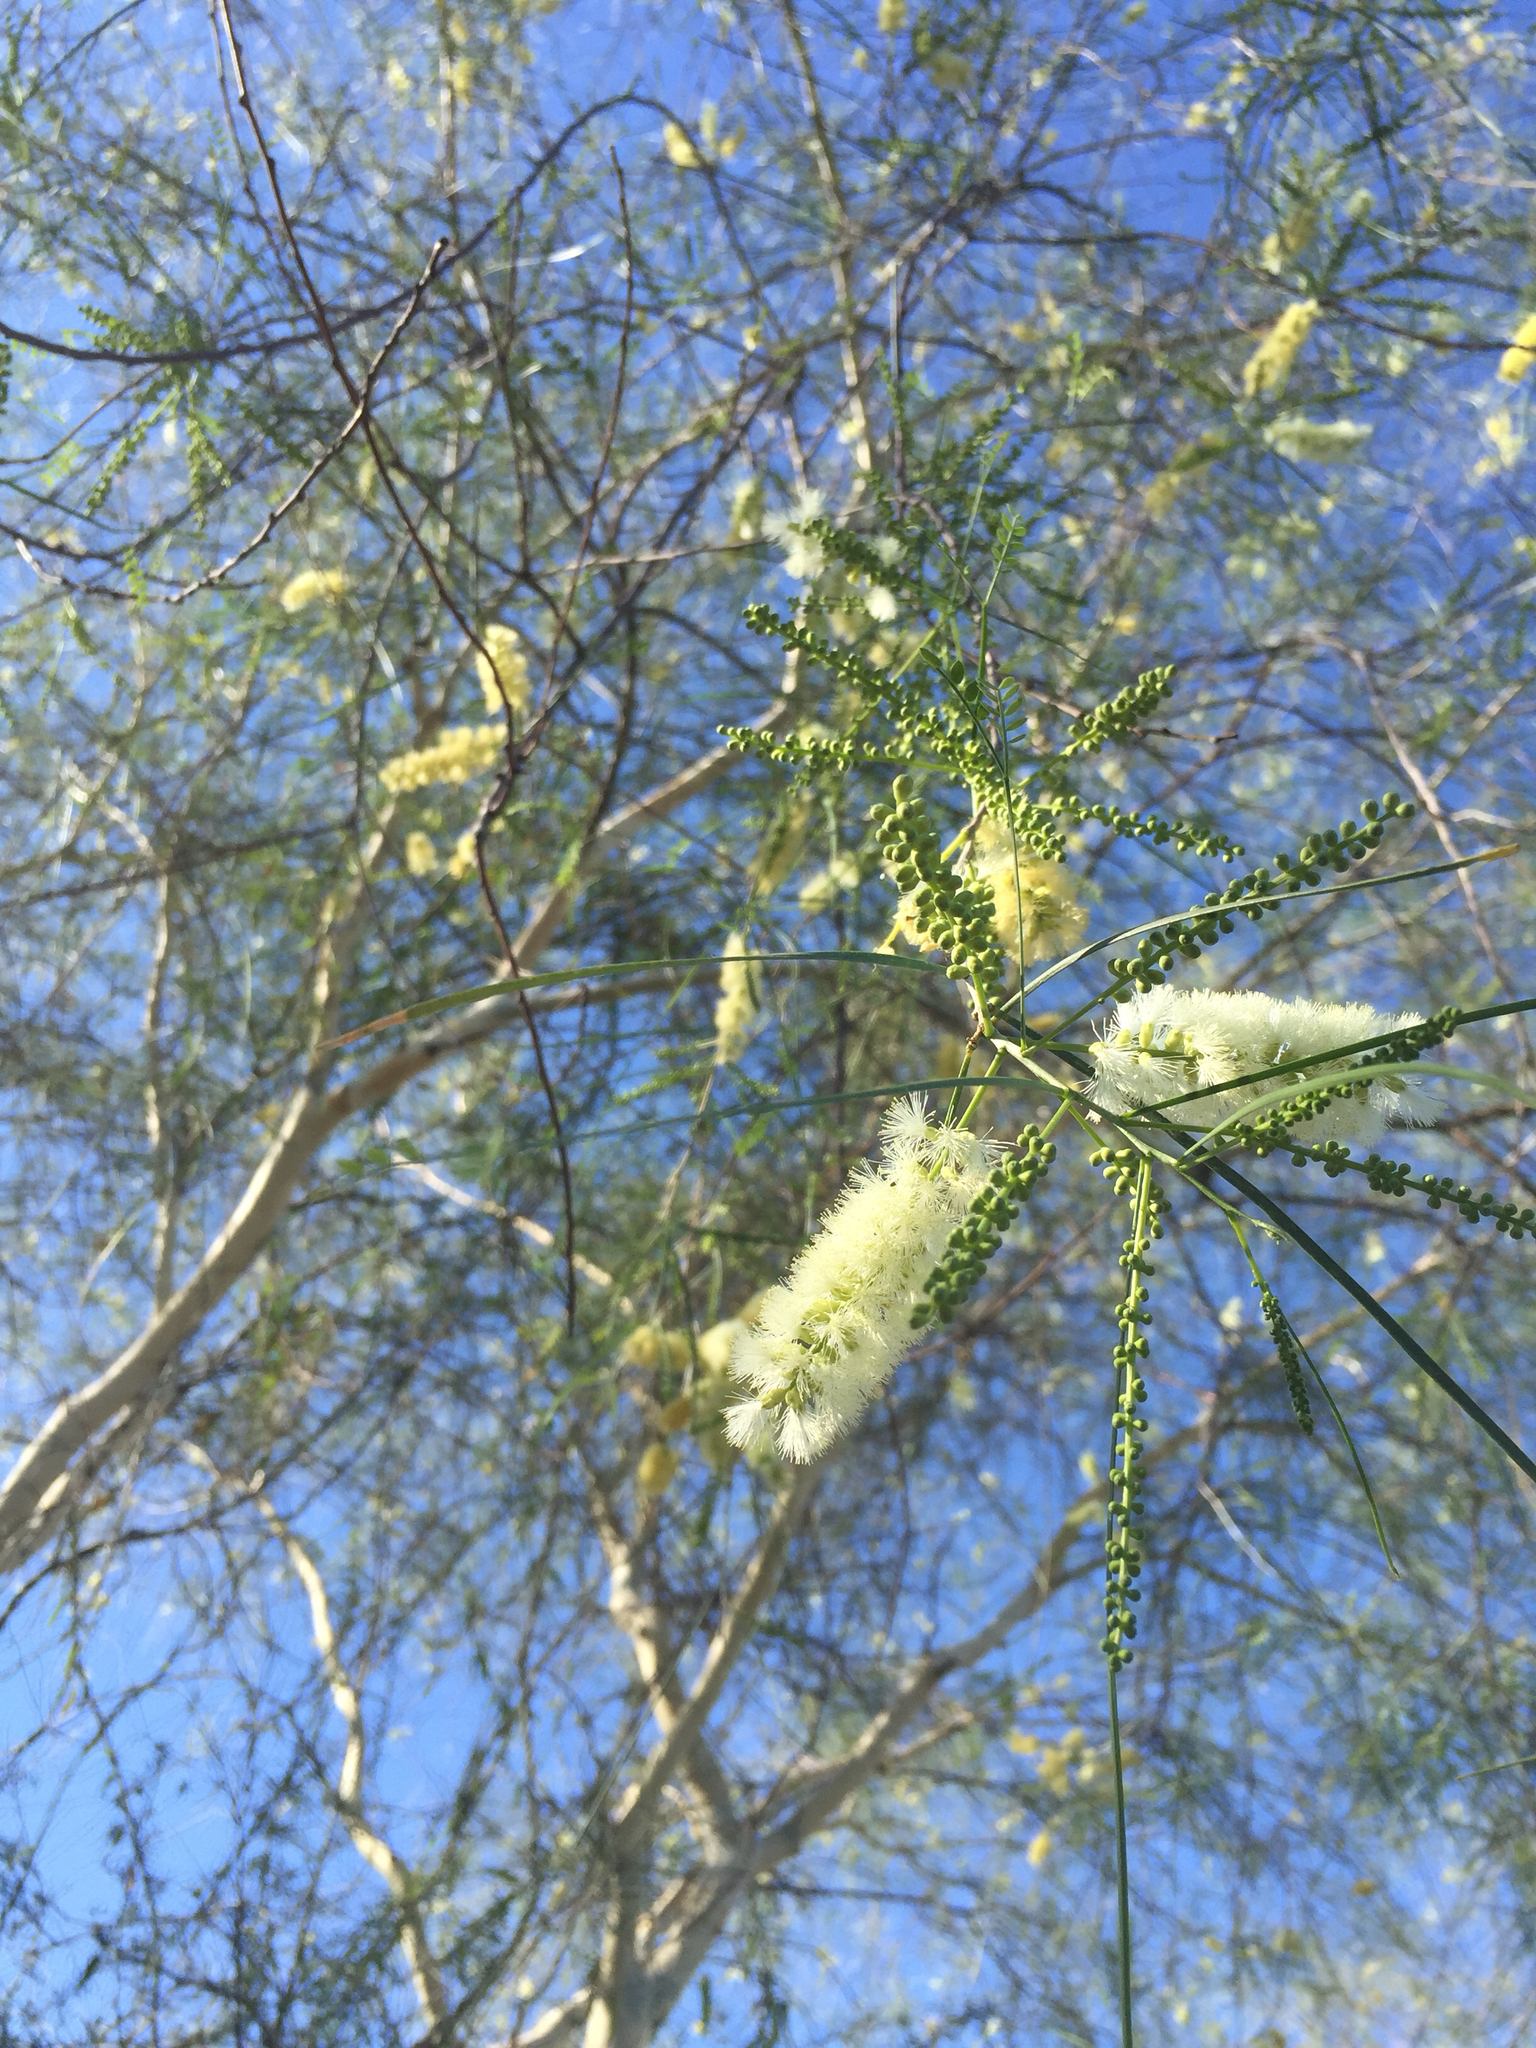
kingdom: Plantae
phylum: Tracheophyta
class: Magnoliopsida
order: Fabales
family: Fabaceae
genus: Mariosousa
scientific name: Mariosousa heterophylla
